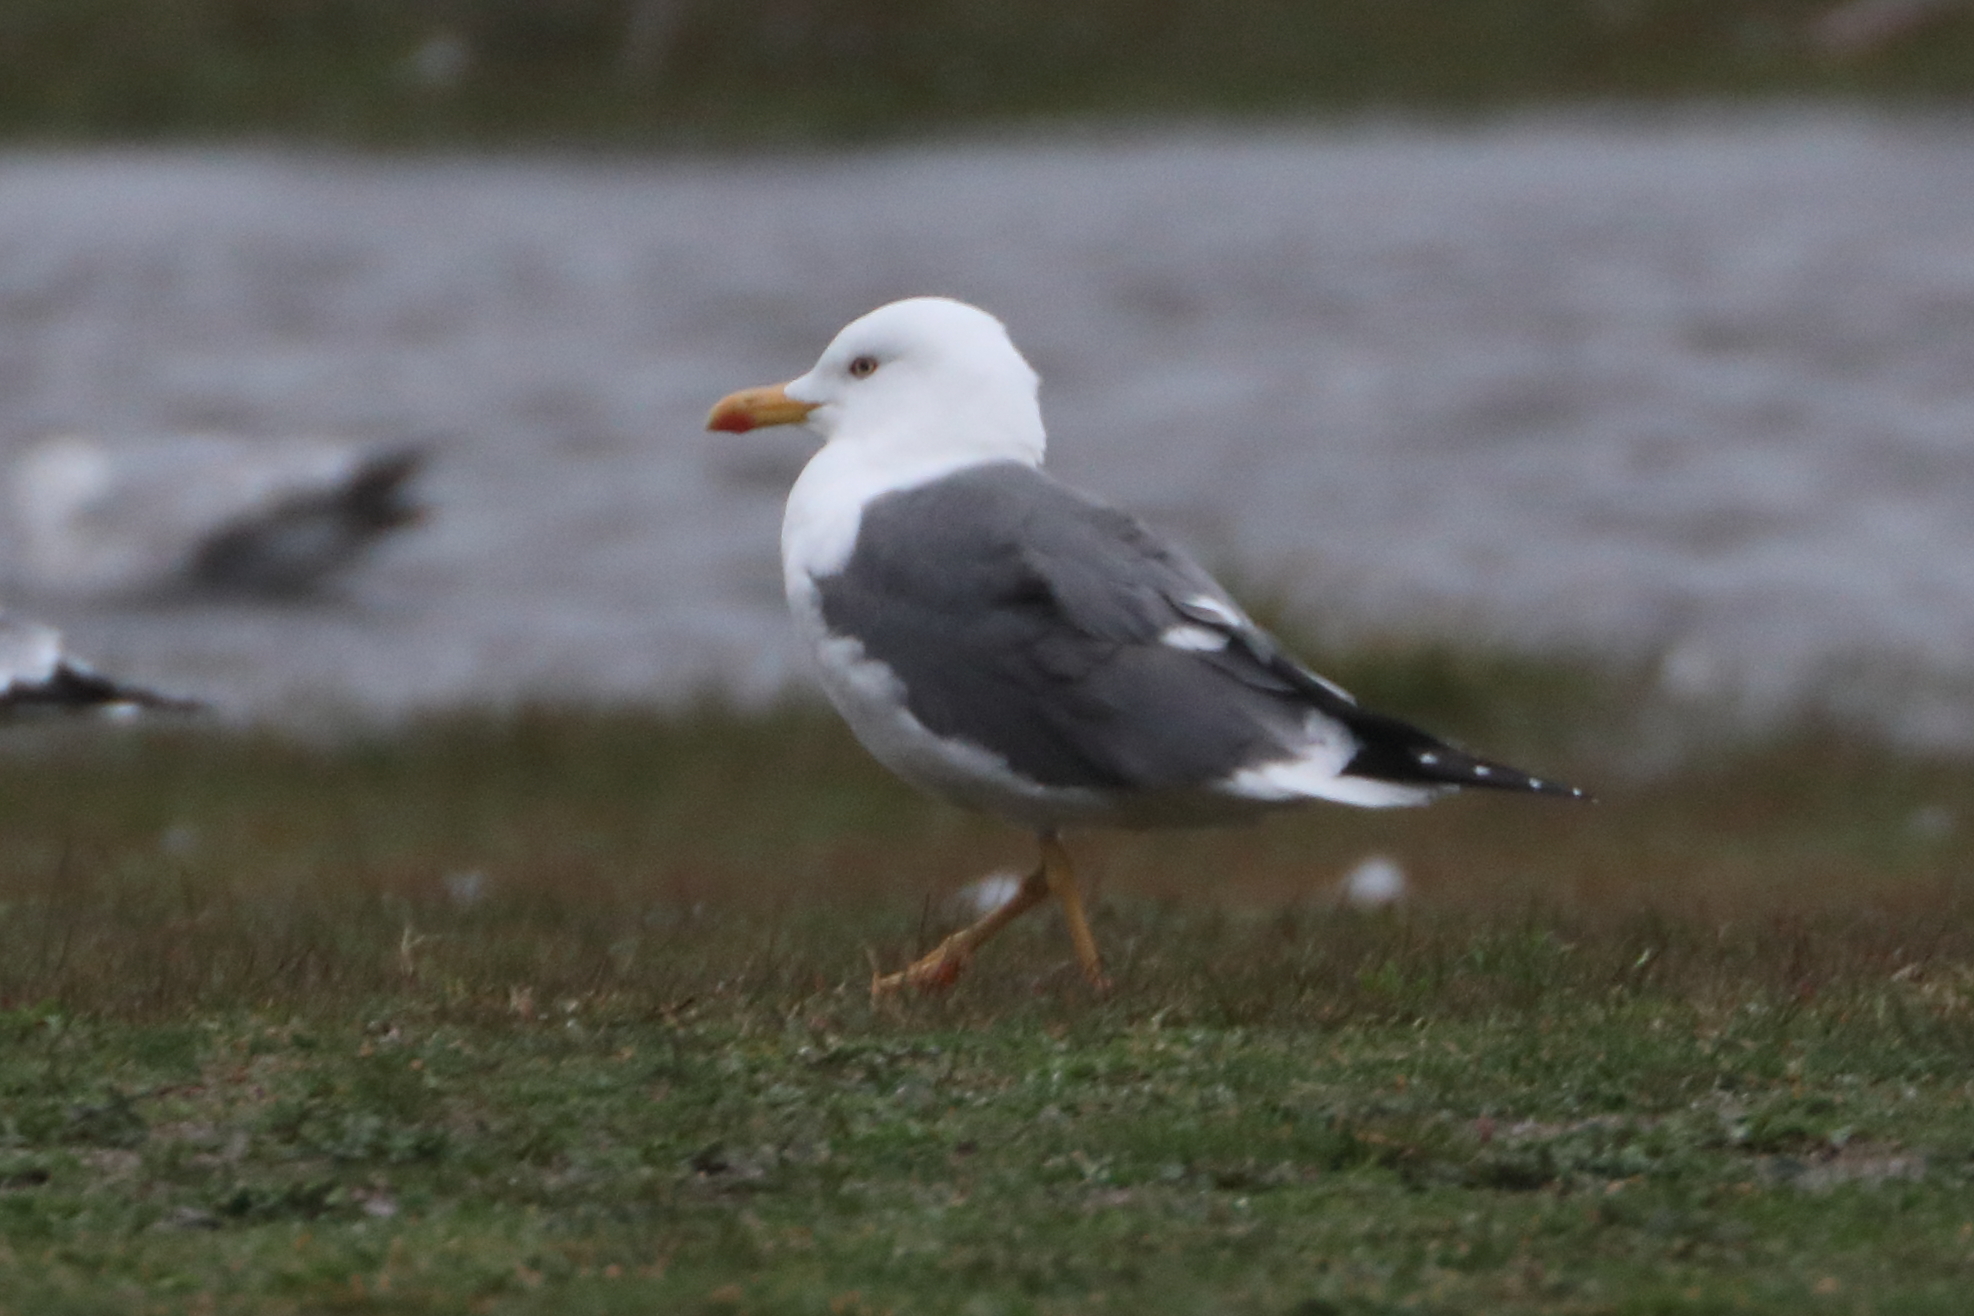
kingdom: Animalia
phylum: Chordata
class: Aves
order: Charadriiformes
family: Laridae
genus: Larus
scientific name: Larus fuscus
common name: Lesser black-backed gull
